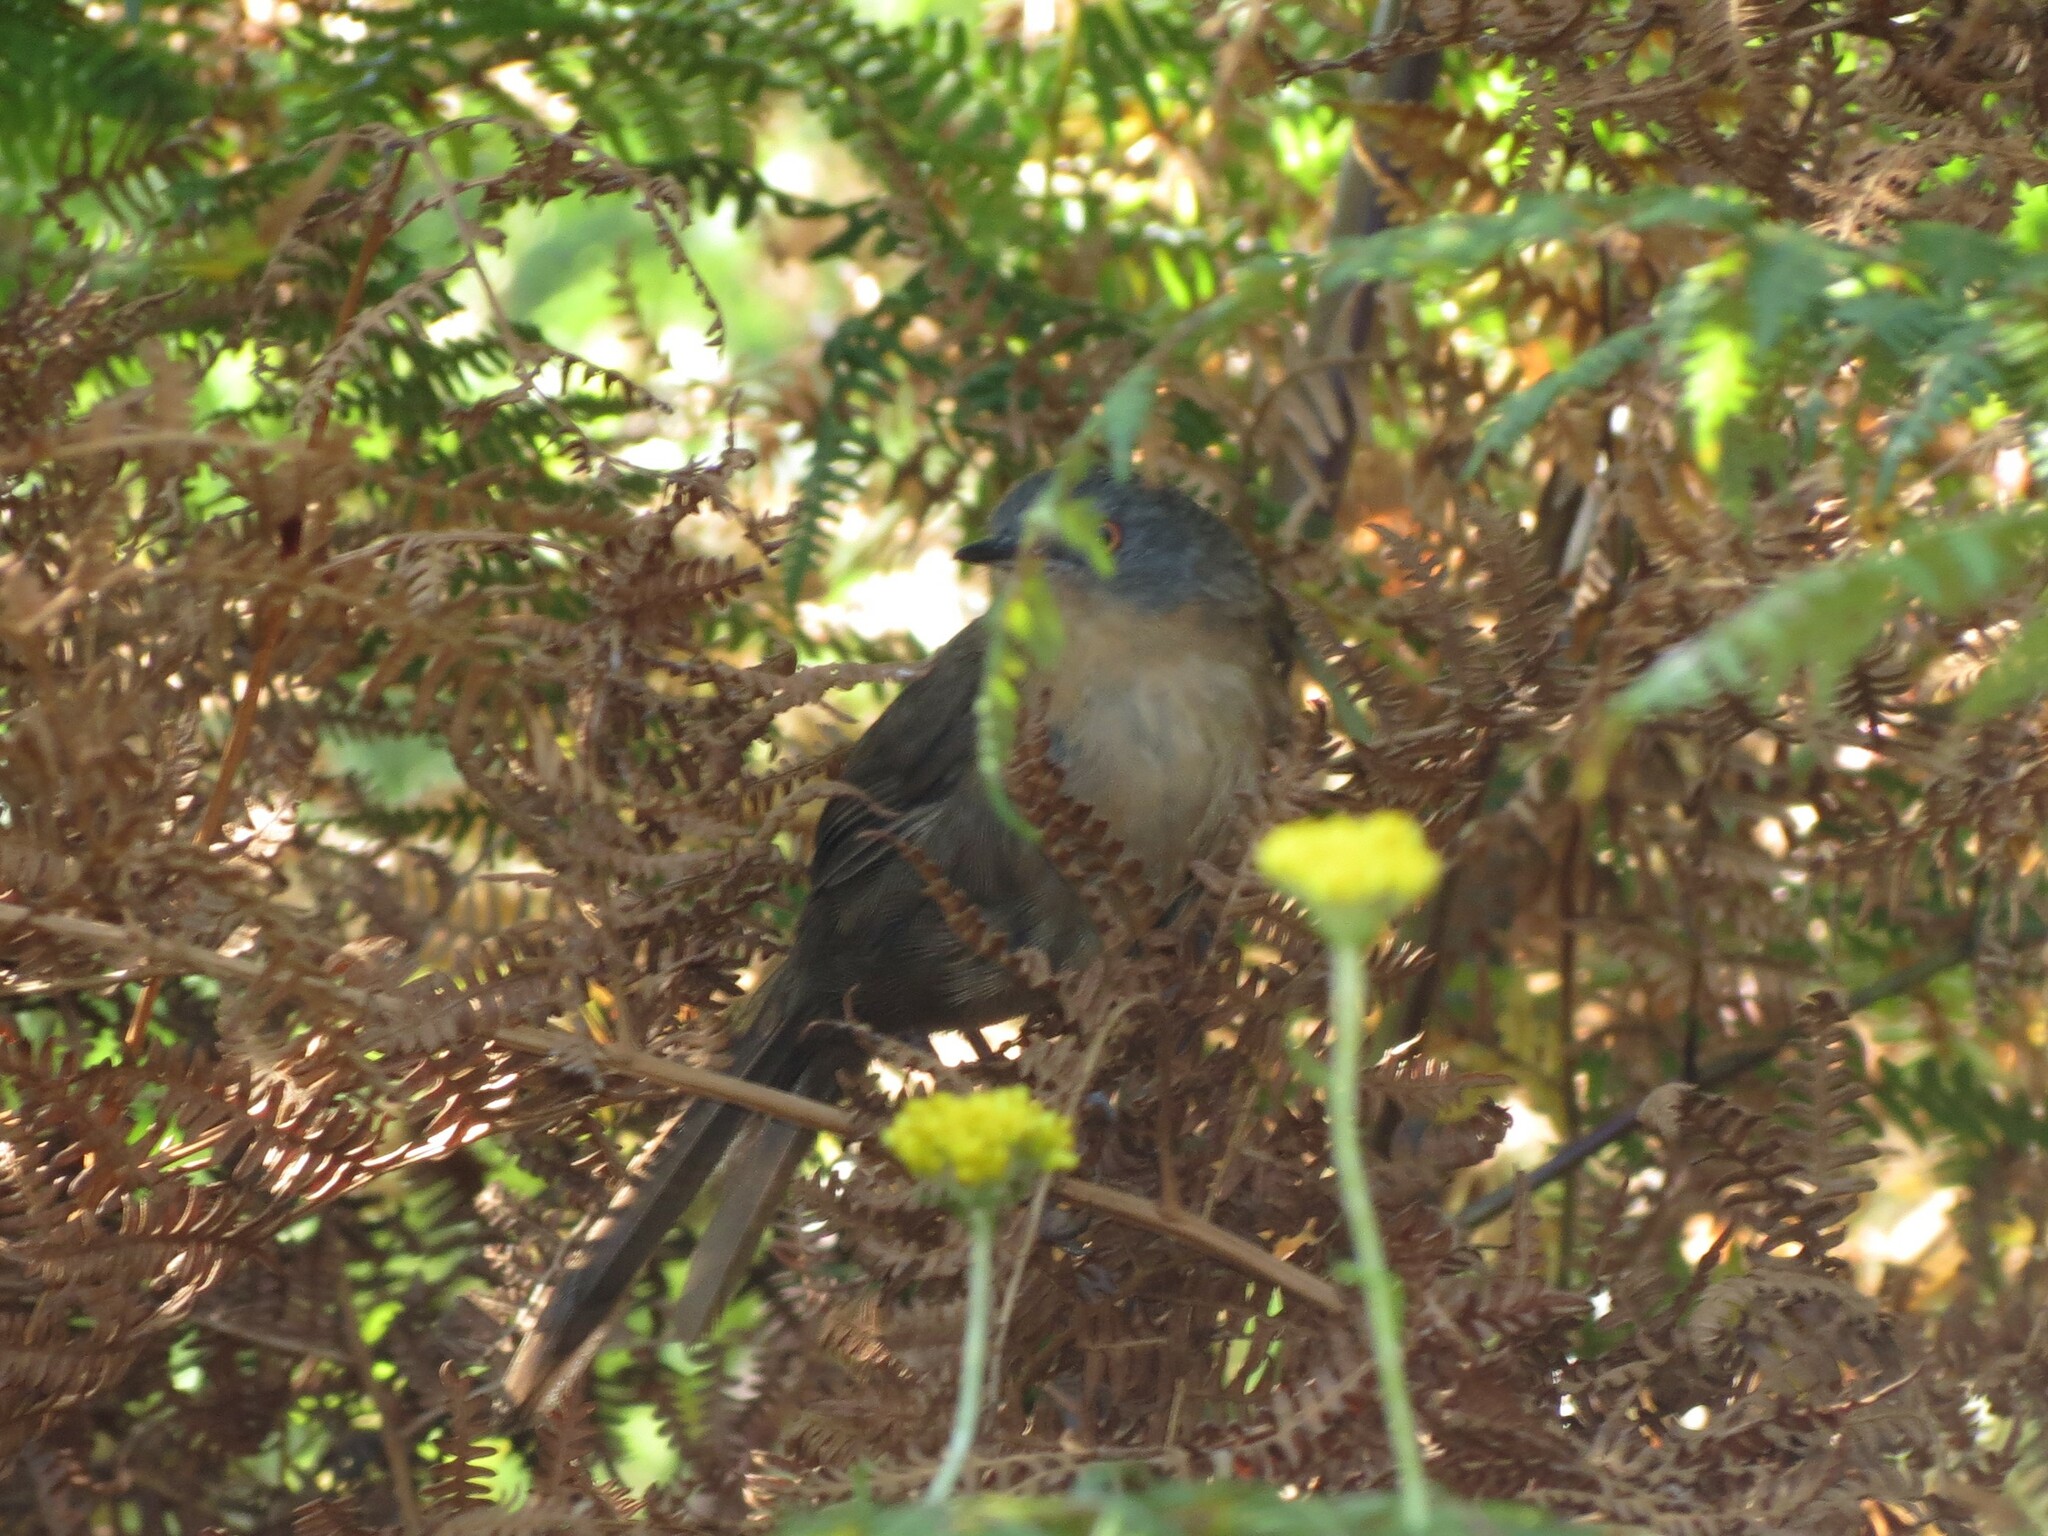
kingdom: Animalia
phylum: Chordata
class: Aves
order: Passeriformes
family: Macrosphenidae
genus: Cryptillas
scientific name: Cryptillas victorini
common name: Victorin's warbler
